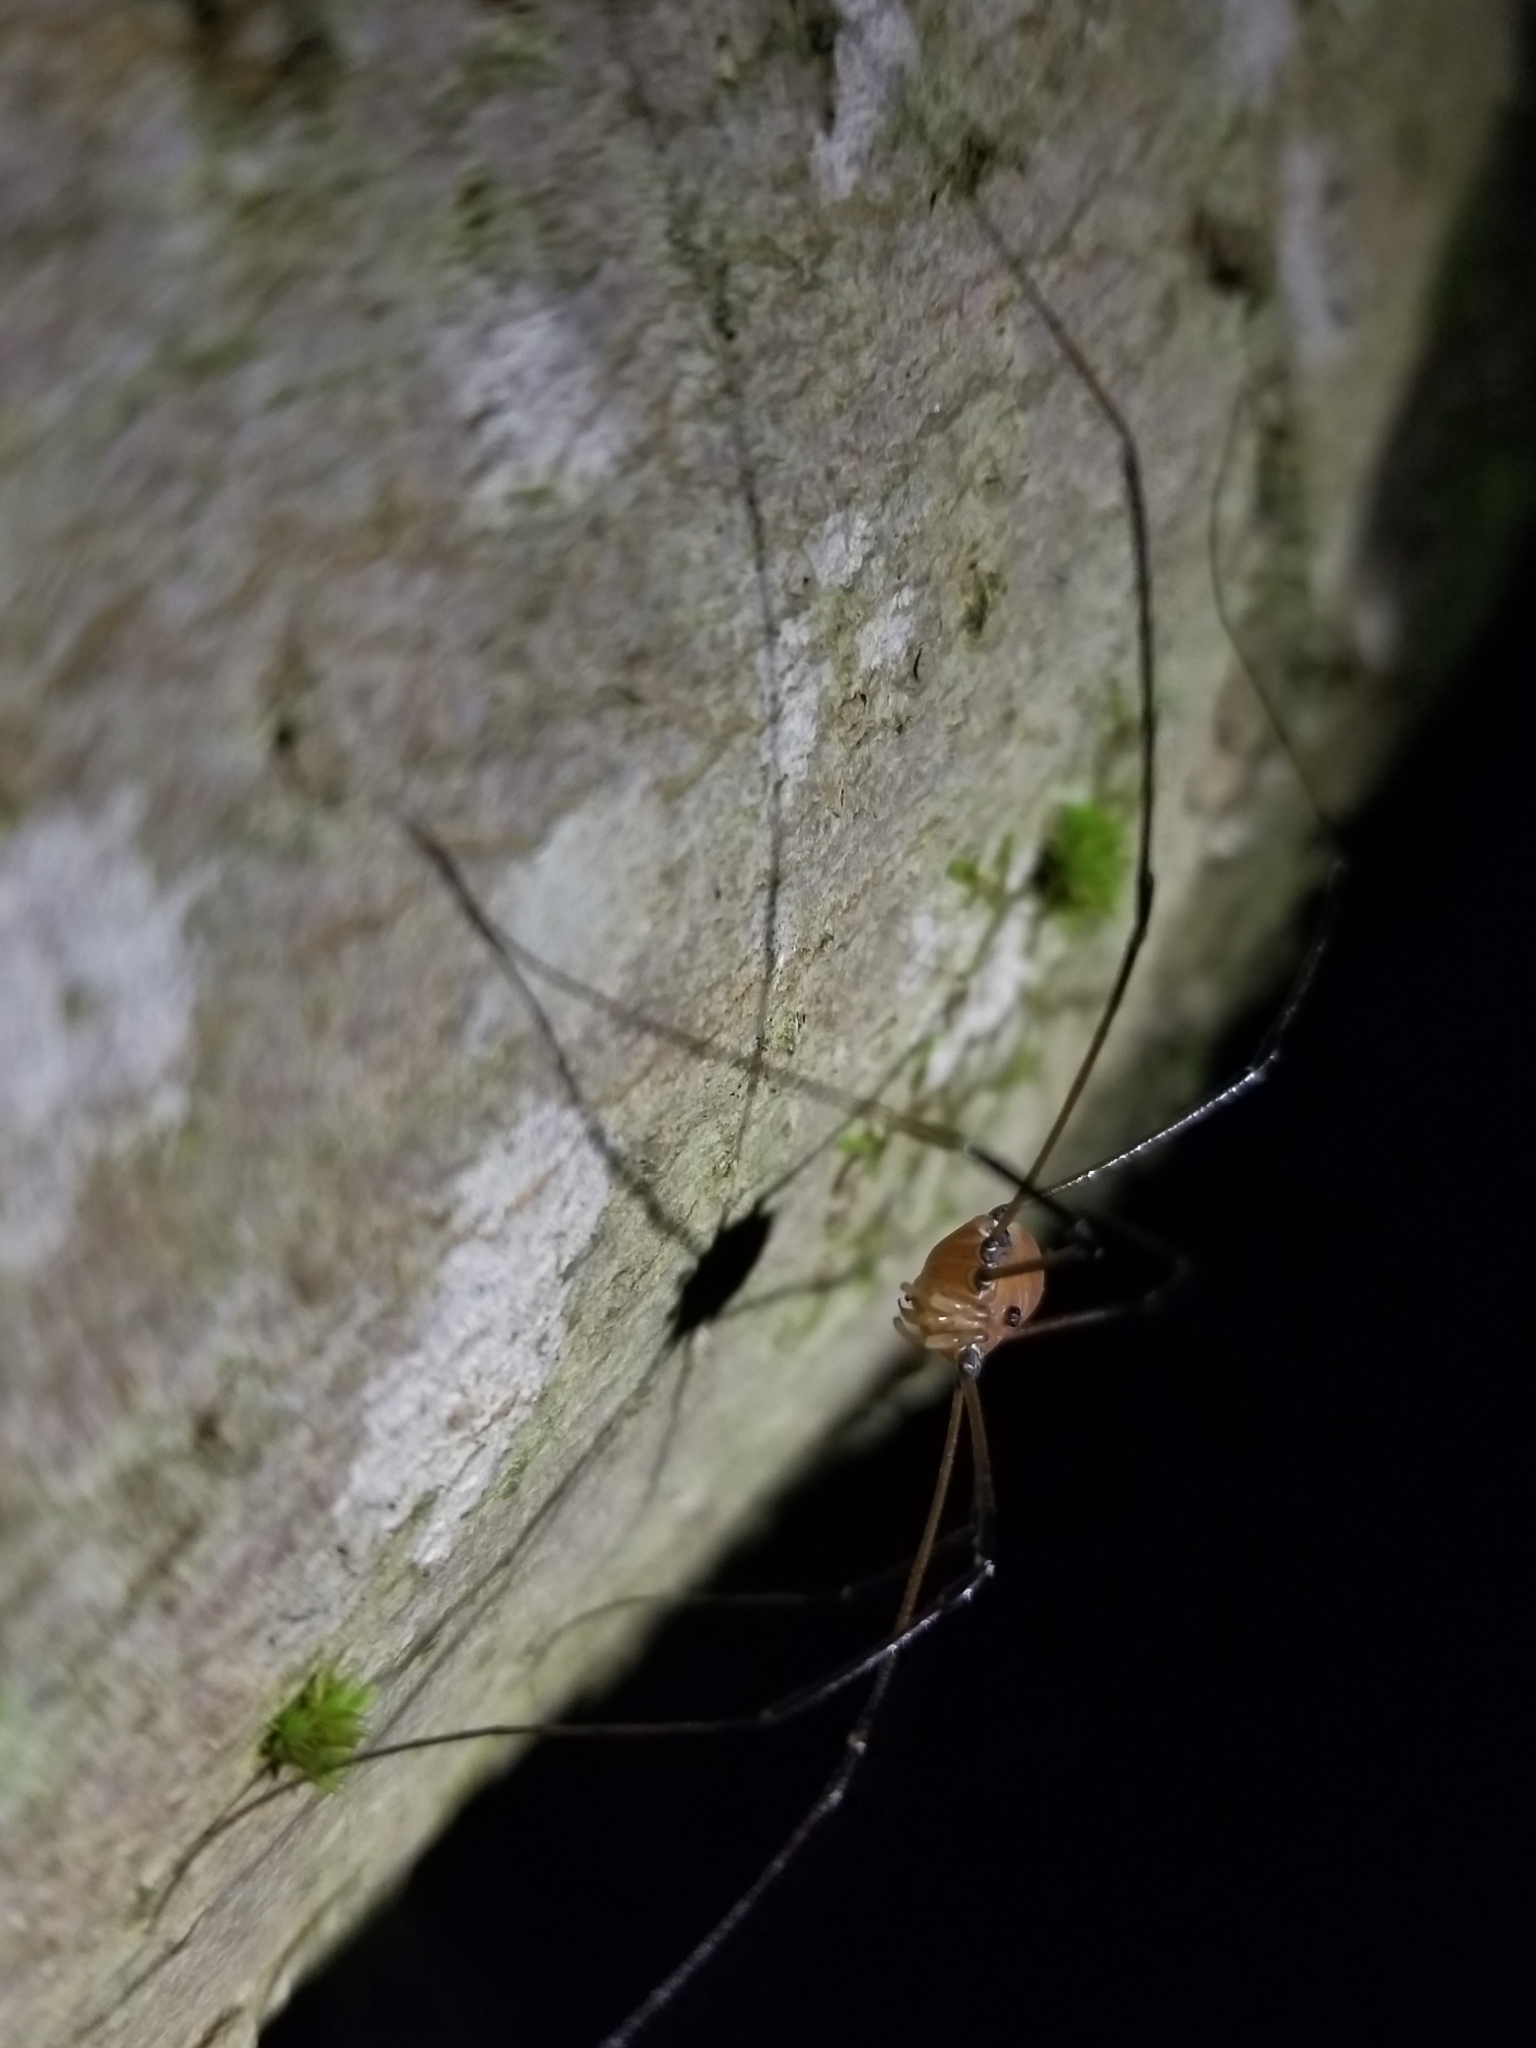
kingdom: Animalia
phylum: Arthropoda
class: Arachnida
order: Opiliones
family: Sclerosomatidae
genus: Leiobunum
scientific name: Leiobunum vittatum
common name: Eastern harvestman
